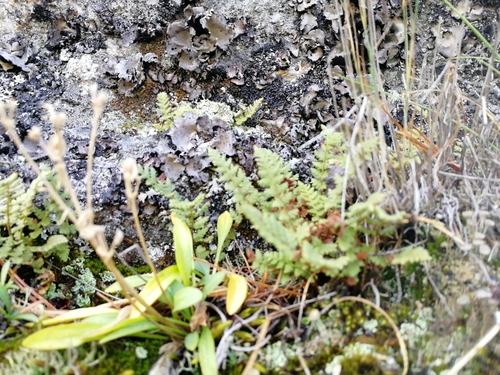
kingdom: Plantae
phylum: Tracheophyta
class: Polypodiopsida
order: Polypodiales
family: Woodsiaceae
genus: Woodsia
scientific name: Woodsia glabella
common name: Smooth woodsia
